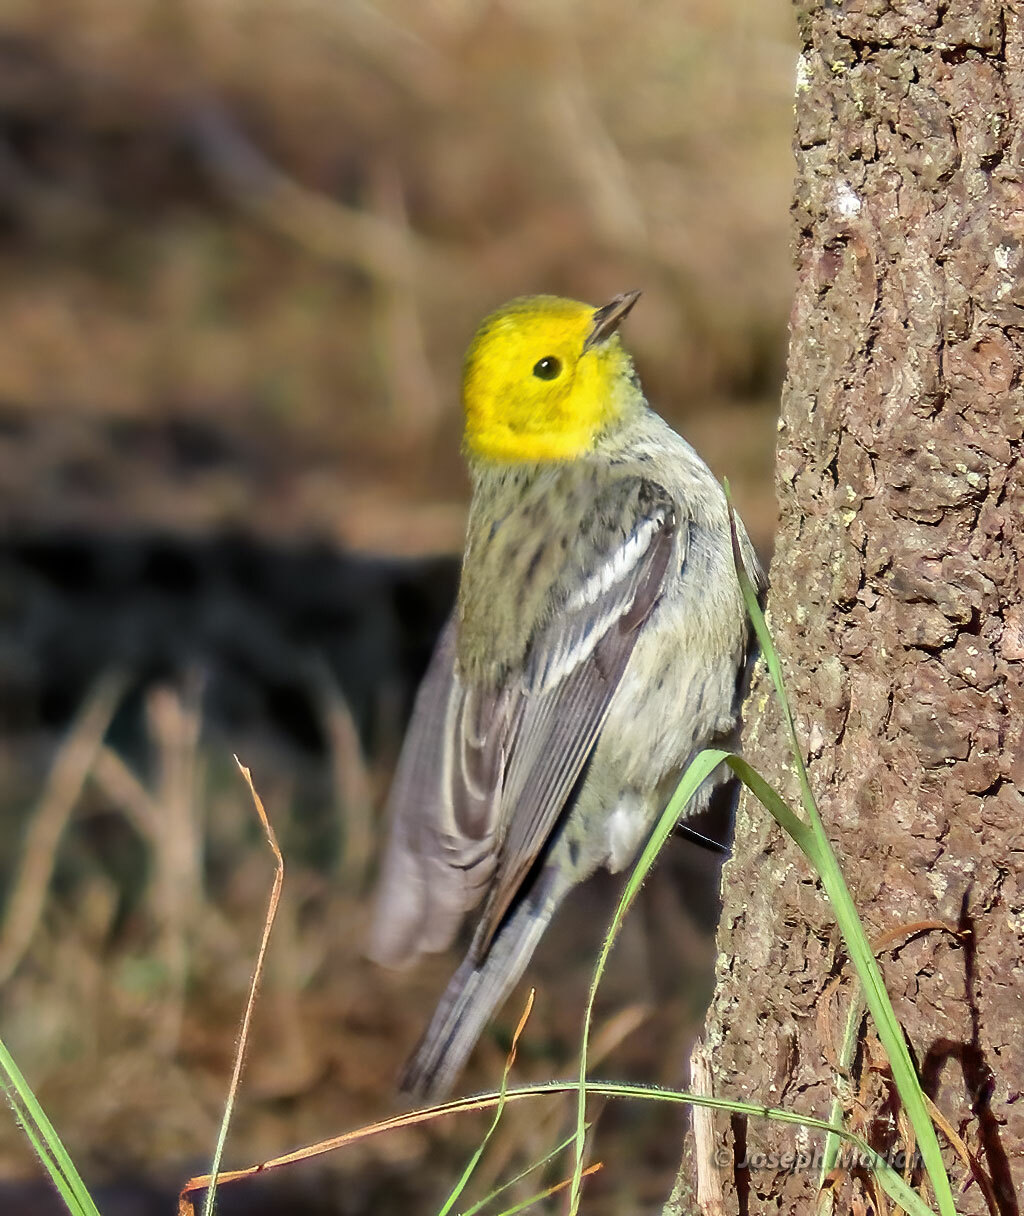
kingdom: Animalia
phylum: Chordata
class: Aves
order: Passeriformes
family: Parulidae
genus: Setophaga
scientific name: Setophaga occidentalis
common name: Hermit warbler
